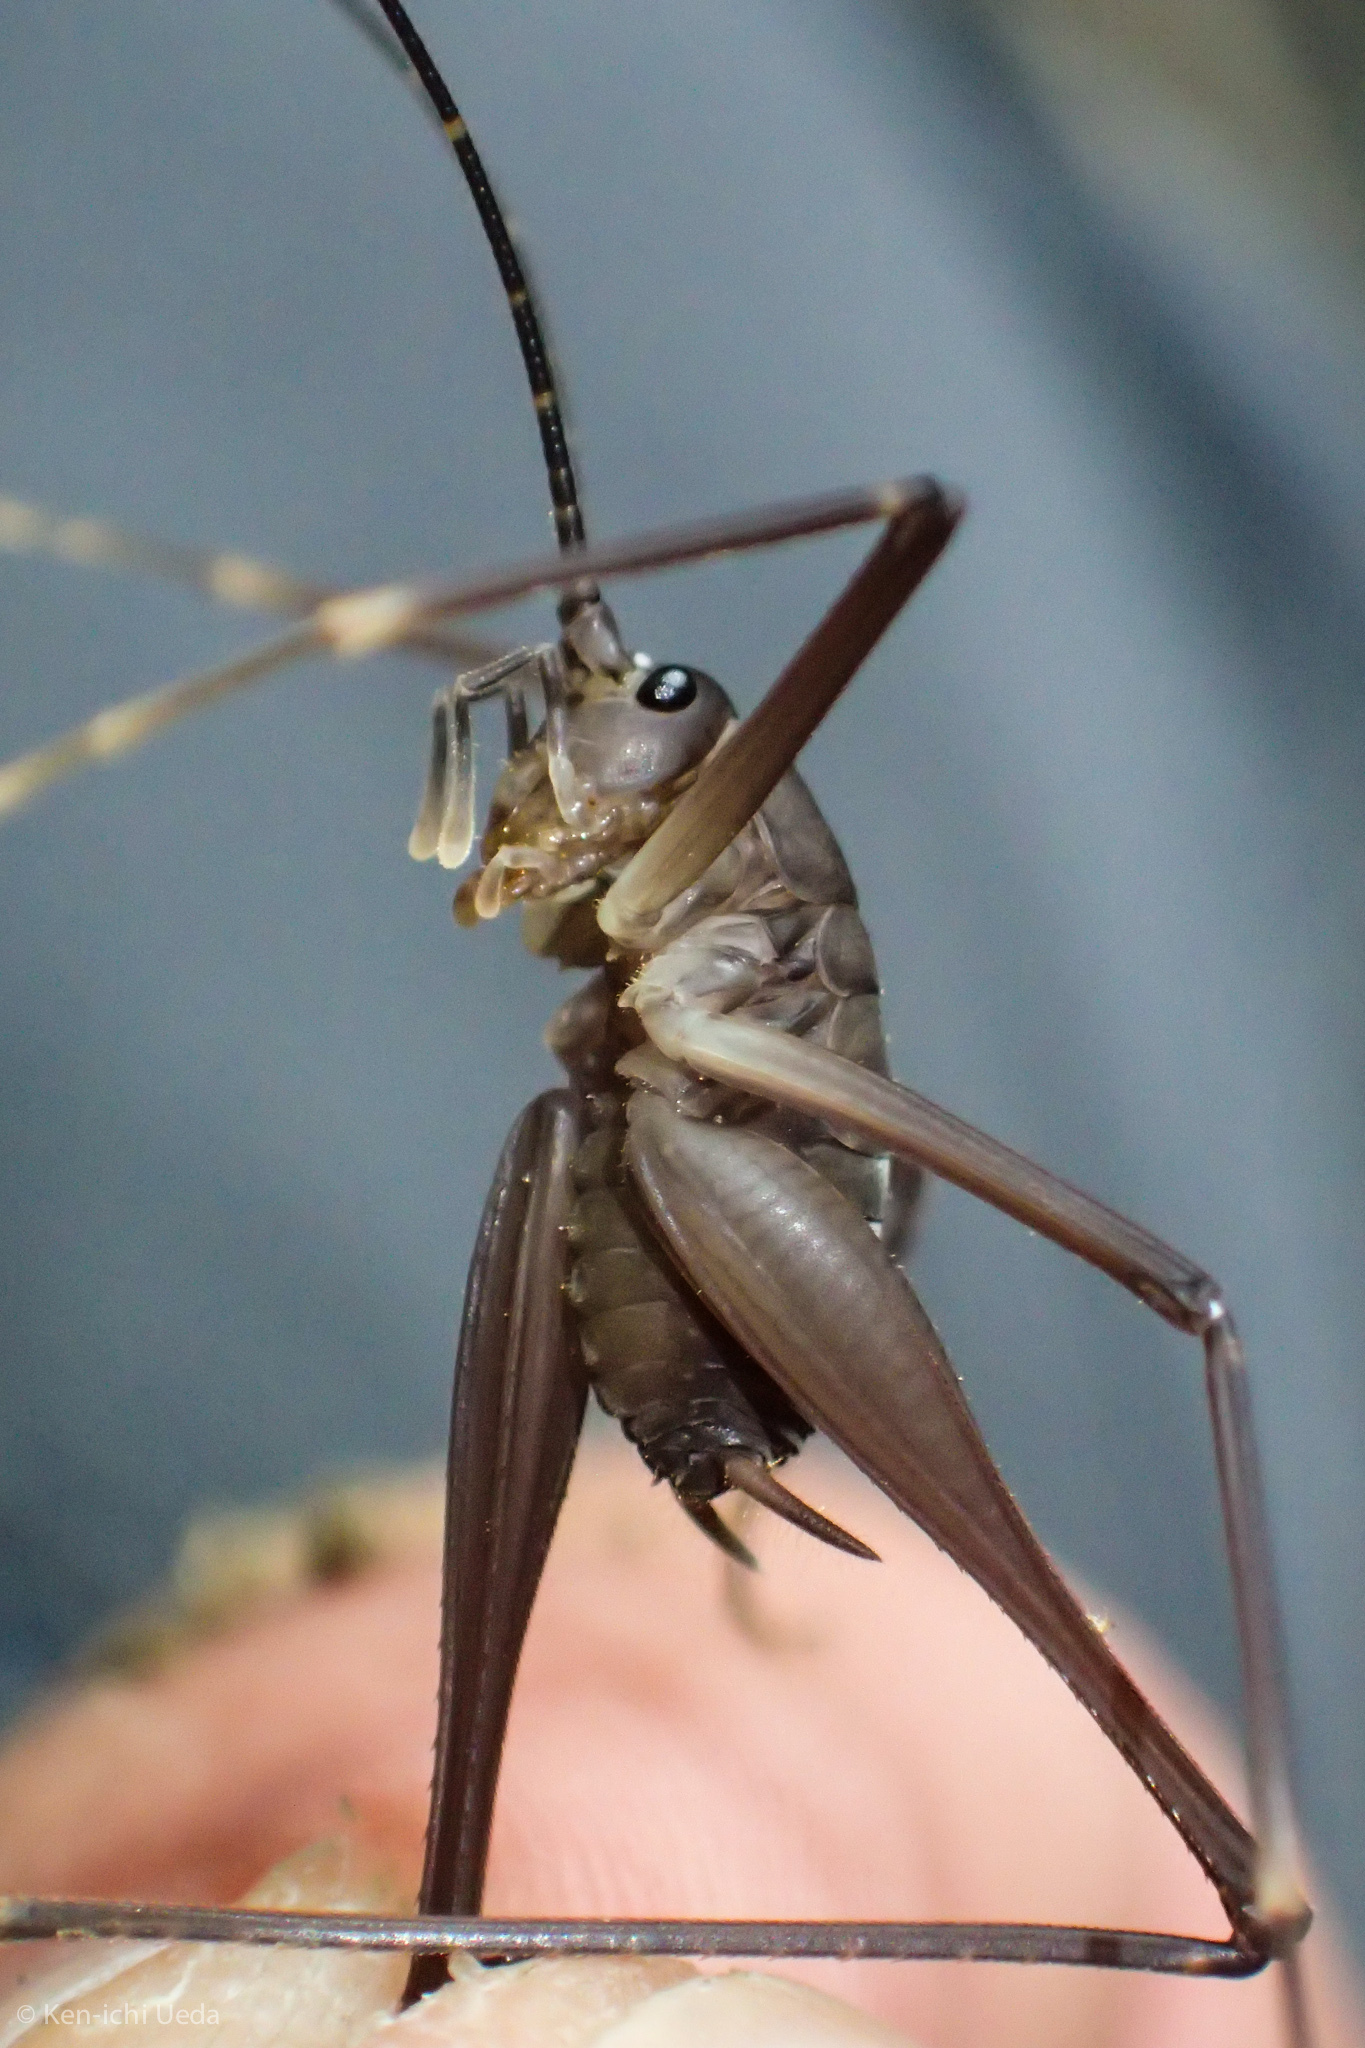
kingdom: Animalia
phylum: Arthropoda
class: Insecta
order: Orthoptera
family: Rhaphidophoridae
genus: Tropidischia
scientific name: Tropidischia xanthostoma
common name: Square-legged camel cricket
